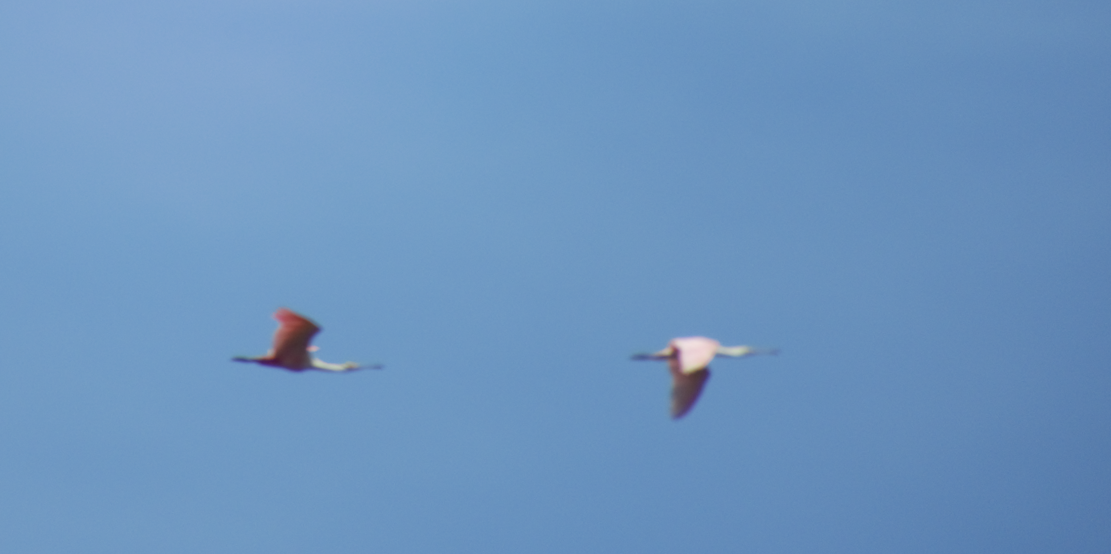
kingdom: Animalia
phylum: Chordata
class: Aves
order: Pelecaniformes
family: Threskiornithidae
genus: Platalea
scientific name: Platalea ajaja
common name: Roseate spoonbill
